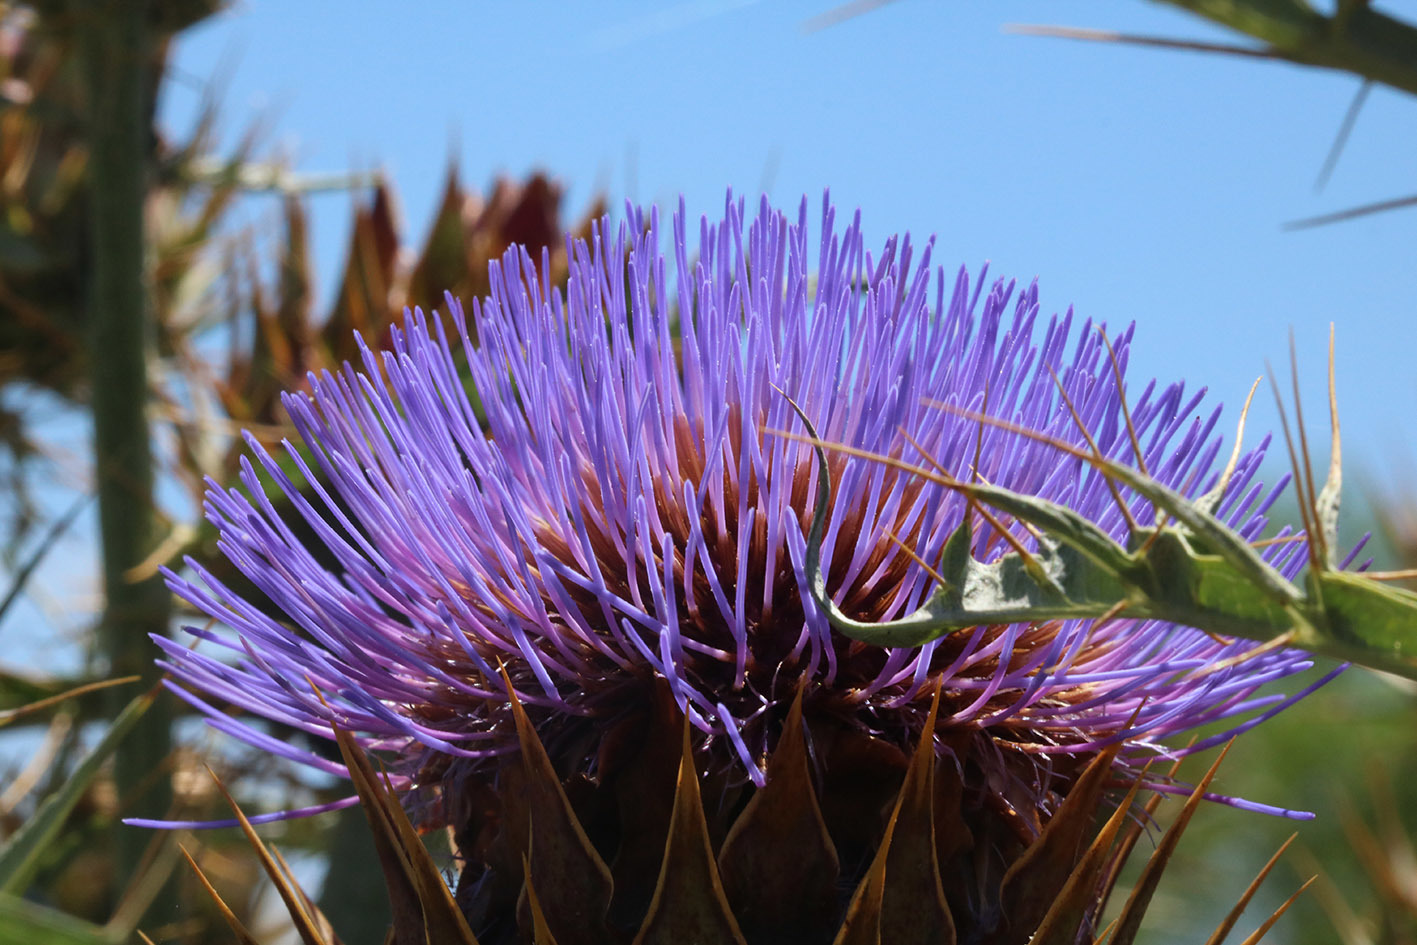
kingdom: Plantae
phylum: Tracheophyta
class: Magnoliopsida
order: Asterales
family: Asteraceae
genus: Cynara
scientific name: Cynara cardunculus
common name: Globe artichoke
